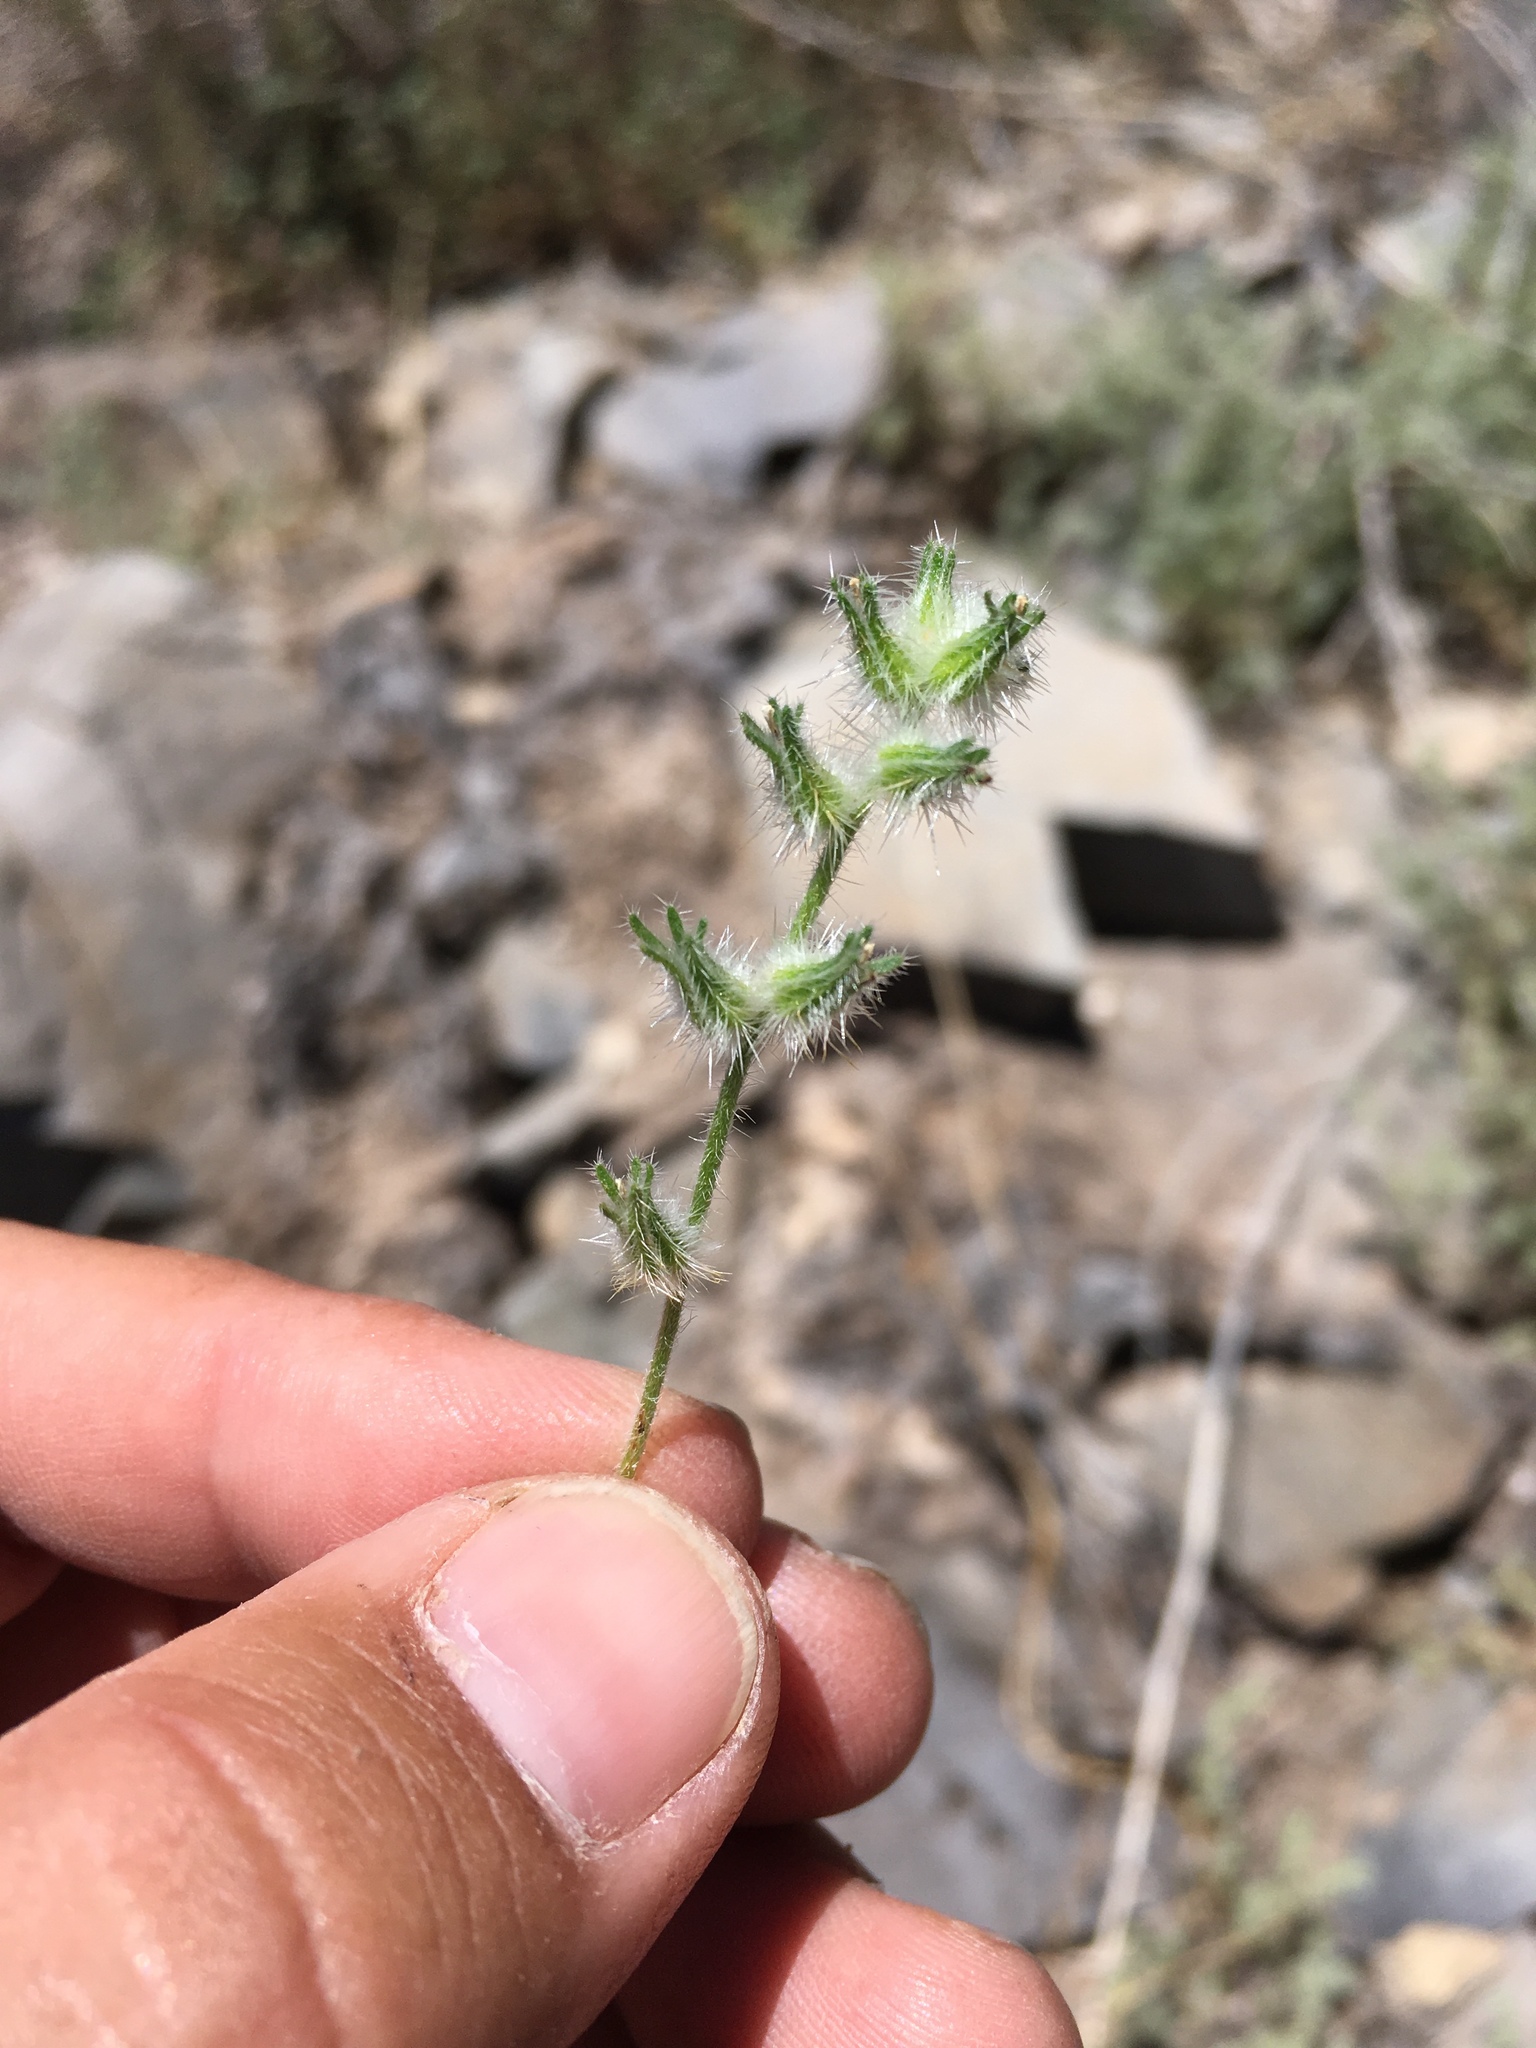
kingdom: Plantae
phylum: Tracheophyta
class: Magnoliopsida
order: Boraginales
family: Boraginaceae
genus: Johnstonella
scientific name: Johnstonella angustifolia
